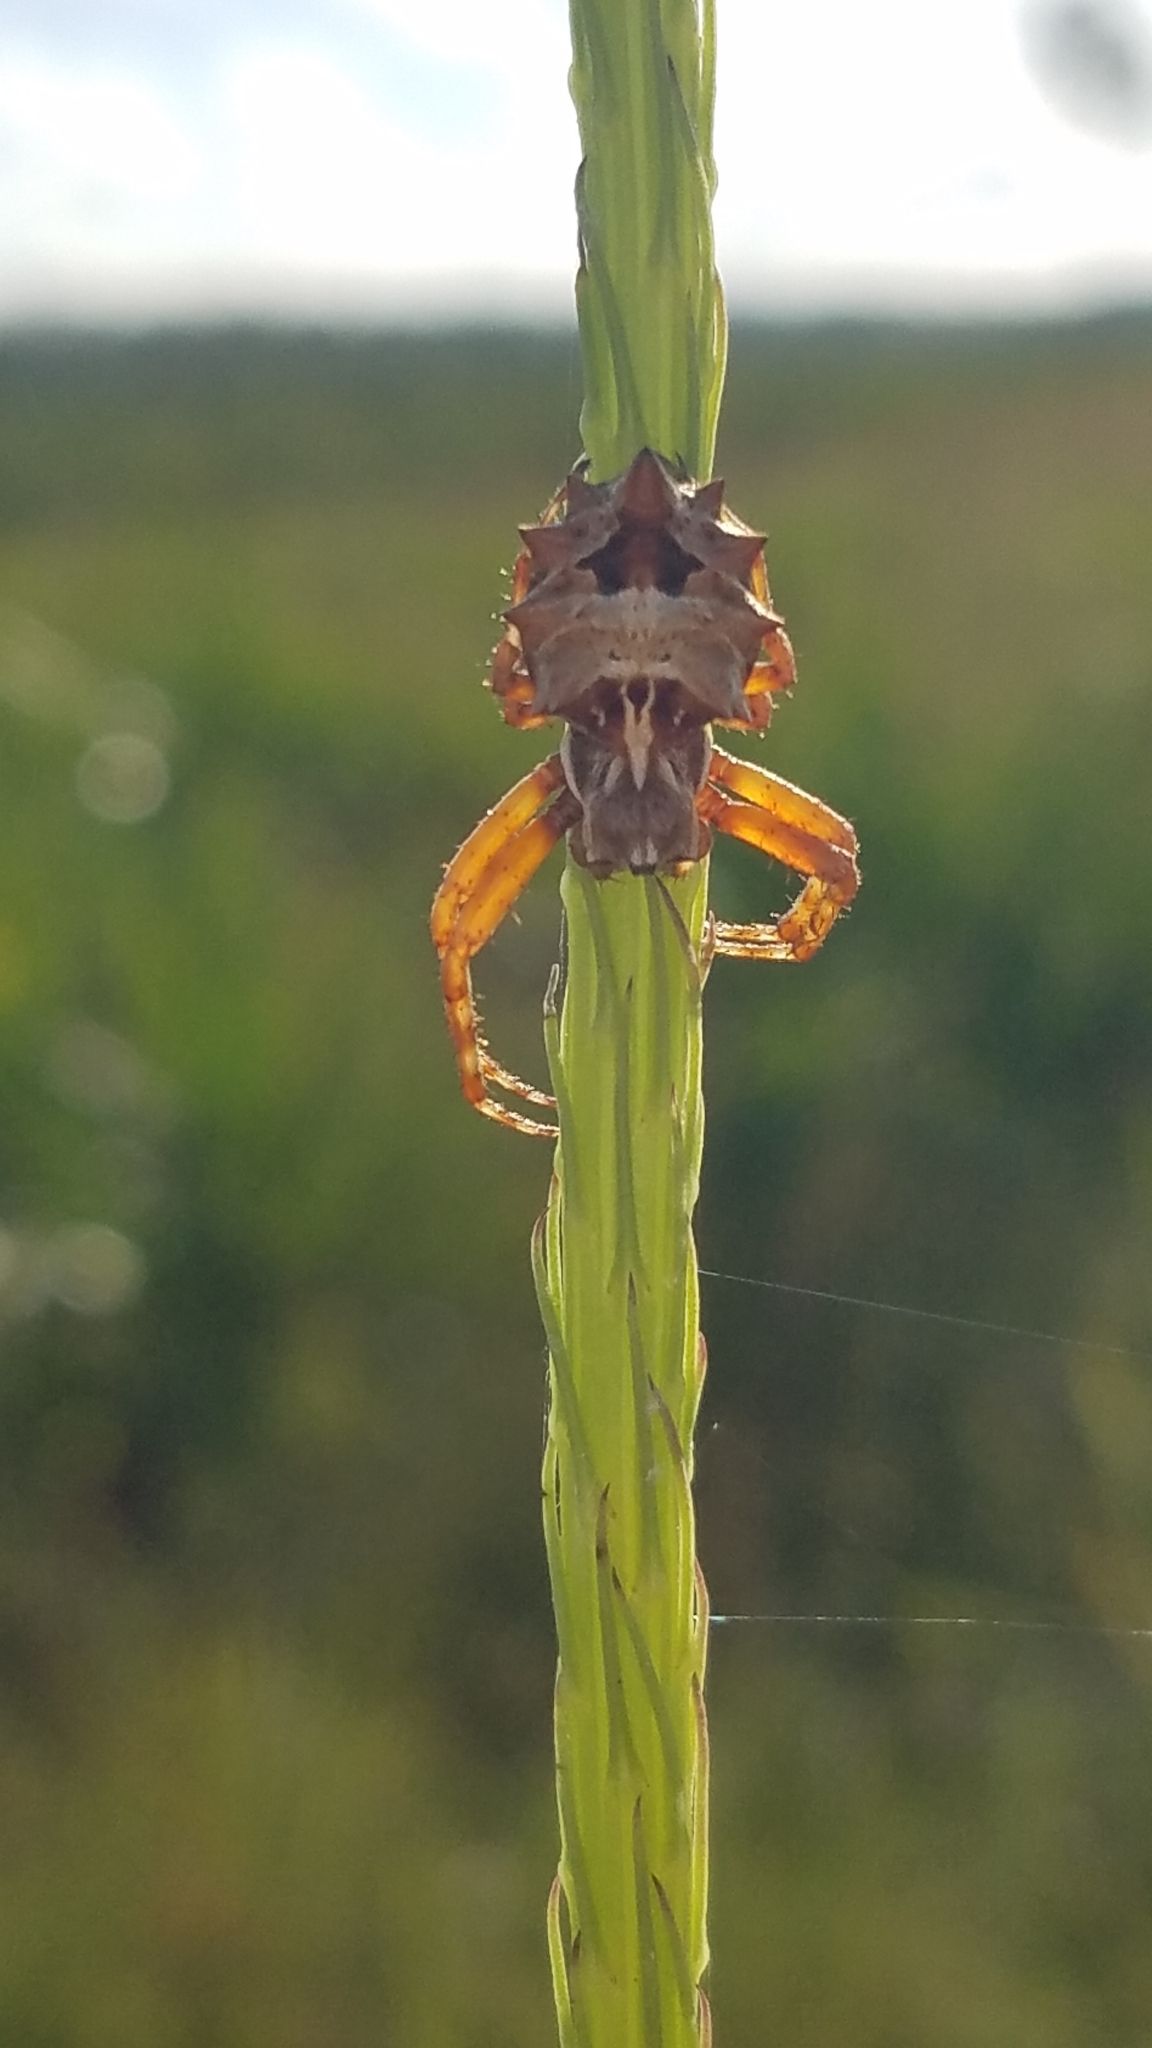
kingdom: Animalia
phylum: Arthropoda
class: Arachnida
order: Araneae
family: Araneidae
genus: Acanthepeira
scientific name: Acanthepeira stellata
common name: Starbellied orbweaver
